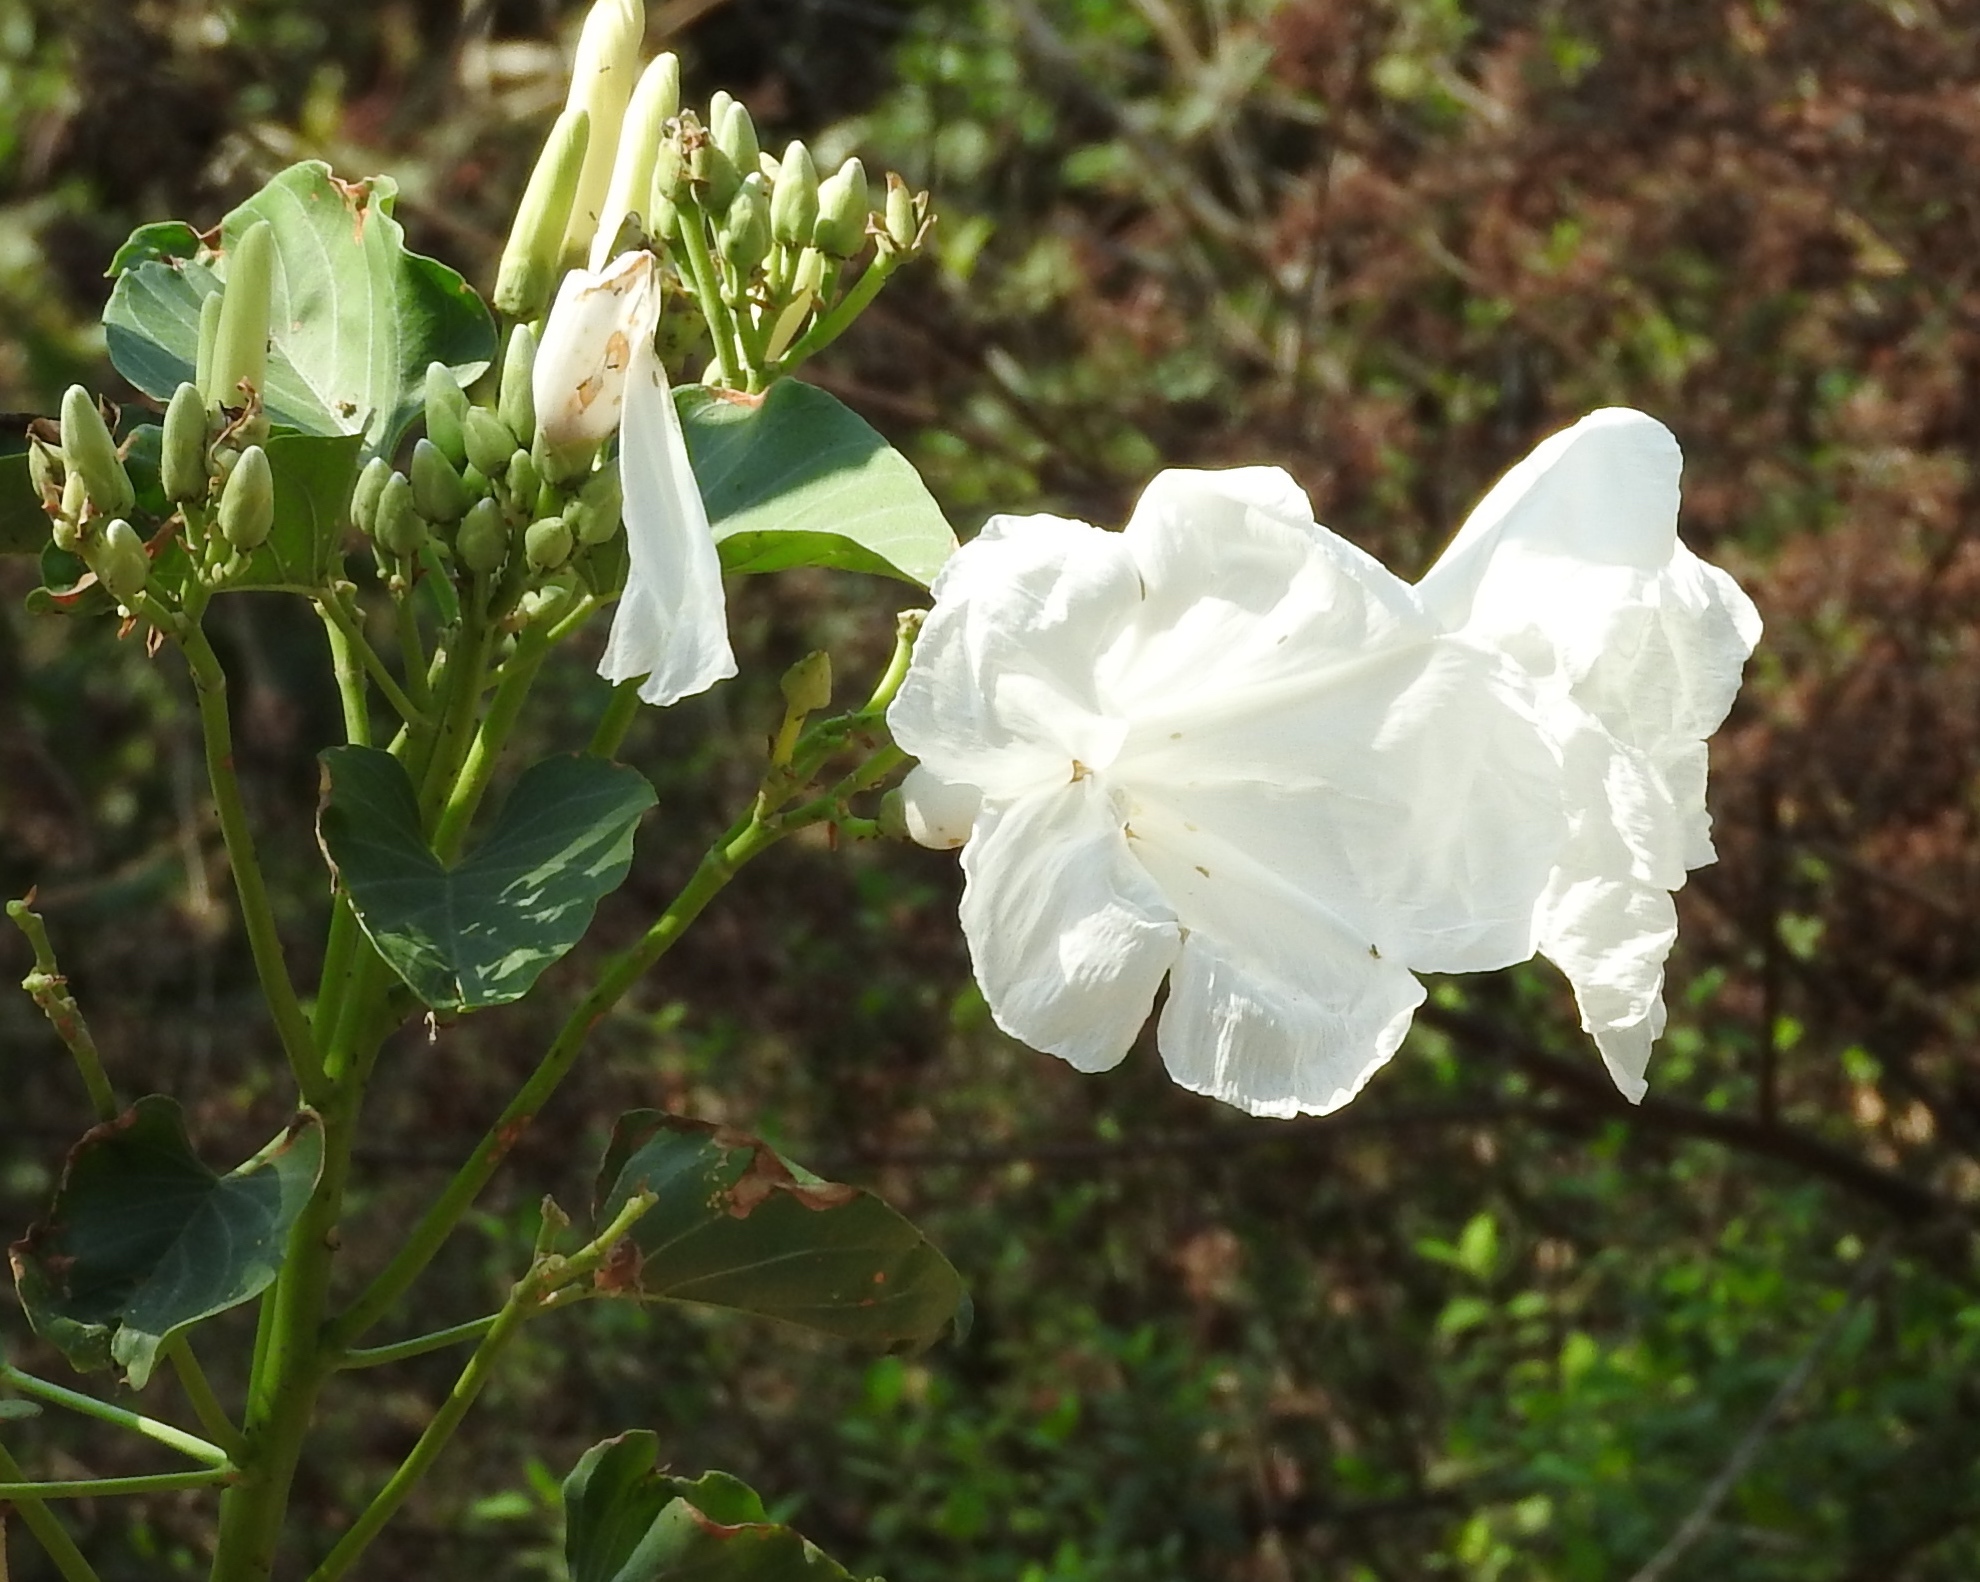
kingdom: Plantae
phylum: Tracheophyta
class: Magnoliopsida
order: Solanales
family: Convolvulaceae
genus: Ipomoea
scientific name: Ipomoea carnea
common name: Morning-glory
